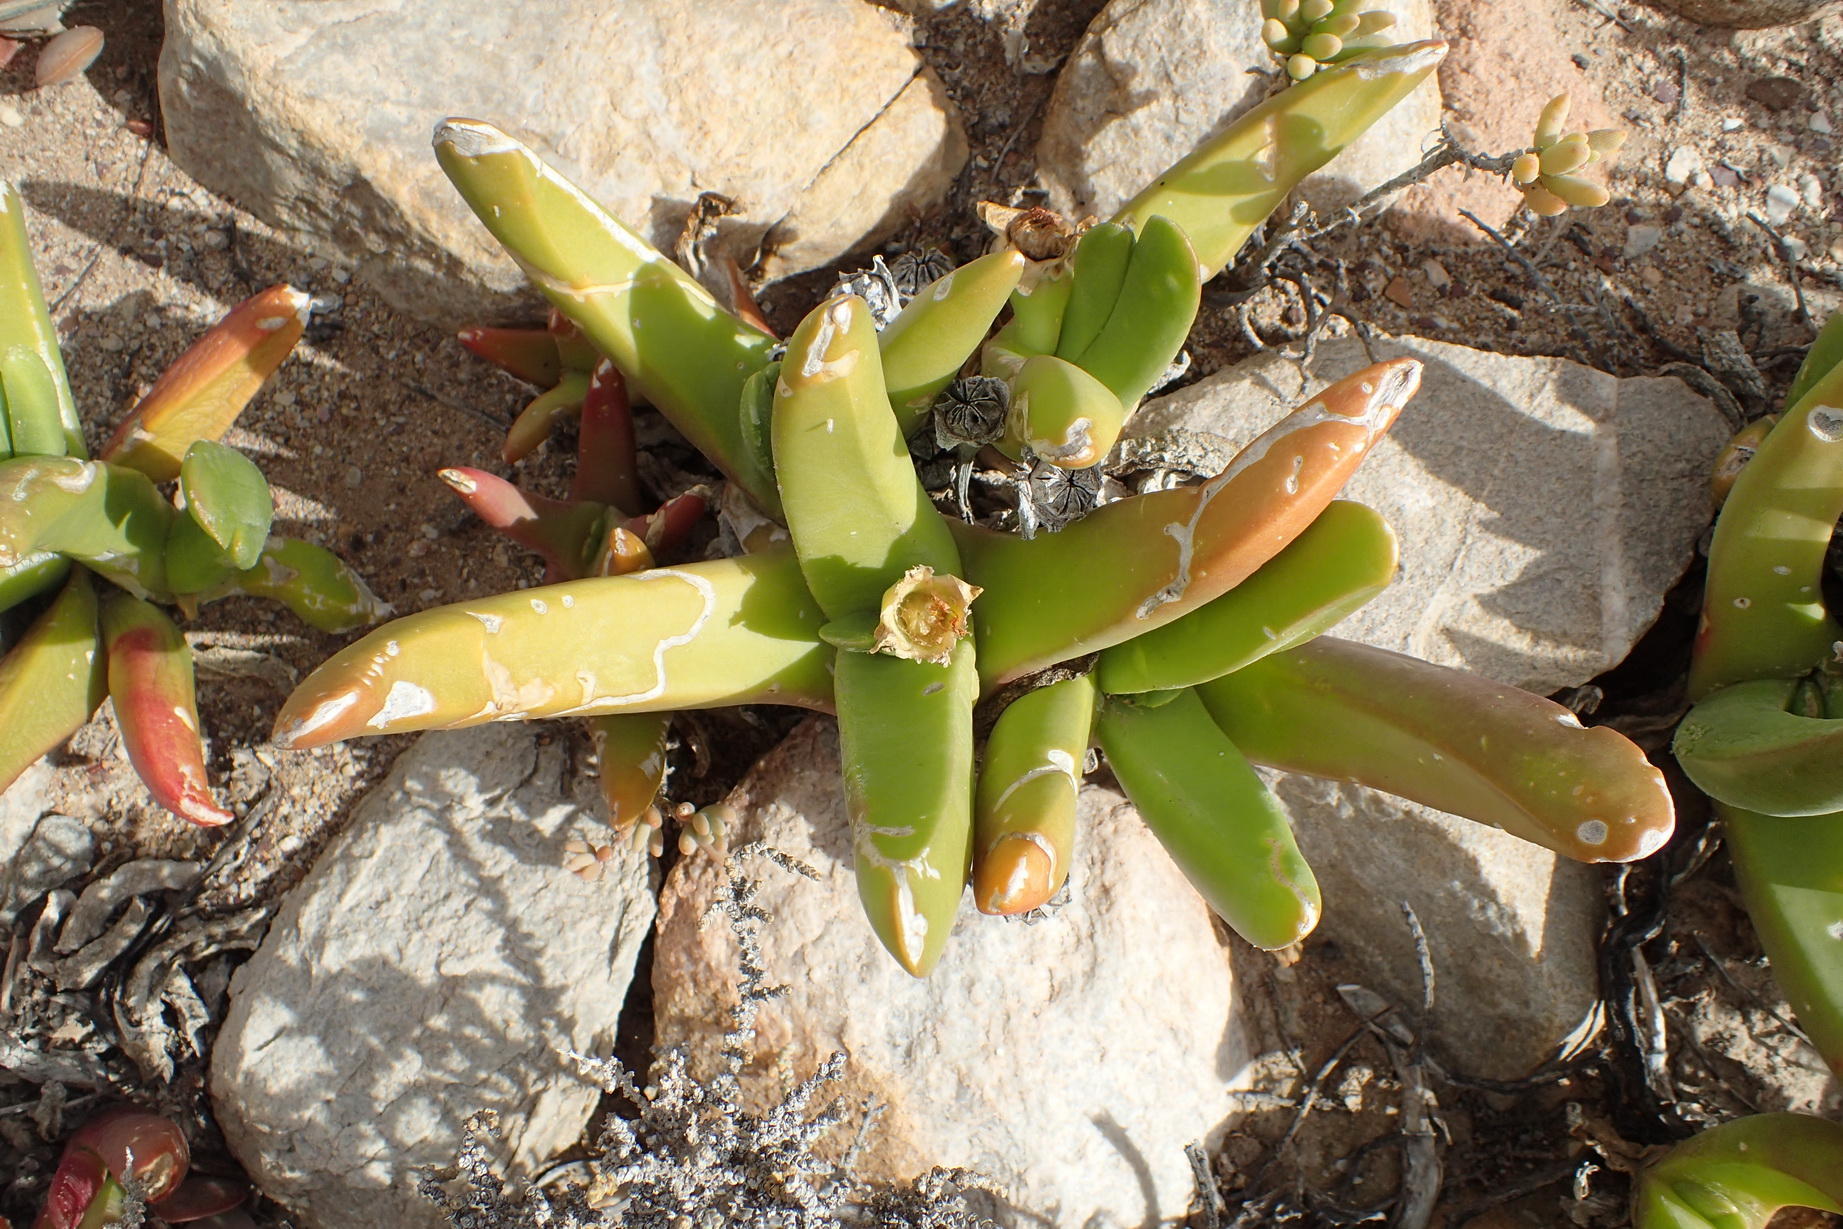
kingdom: Plantae
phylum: Tracheophyta
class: Magnoliopsida
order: Caryophyllales
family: Aizoaceae
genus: Glottiphyllum
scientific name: Glottiphyllum regium
